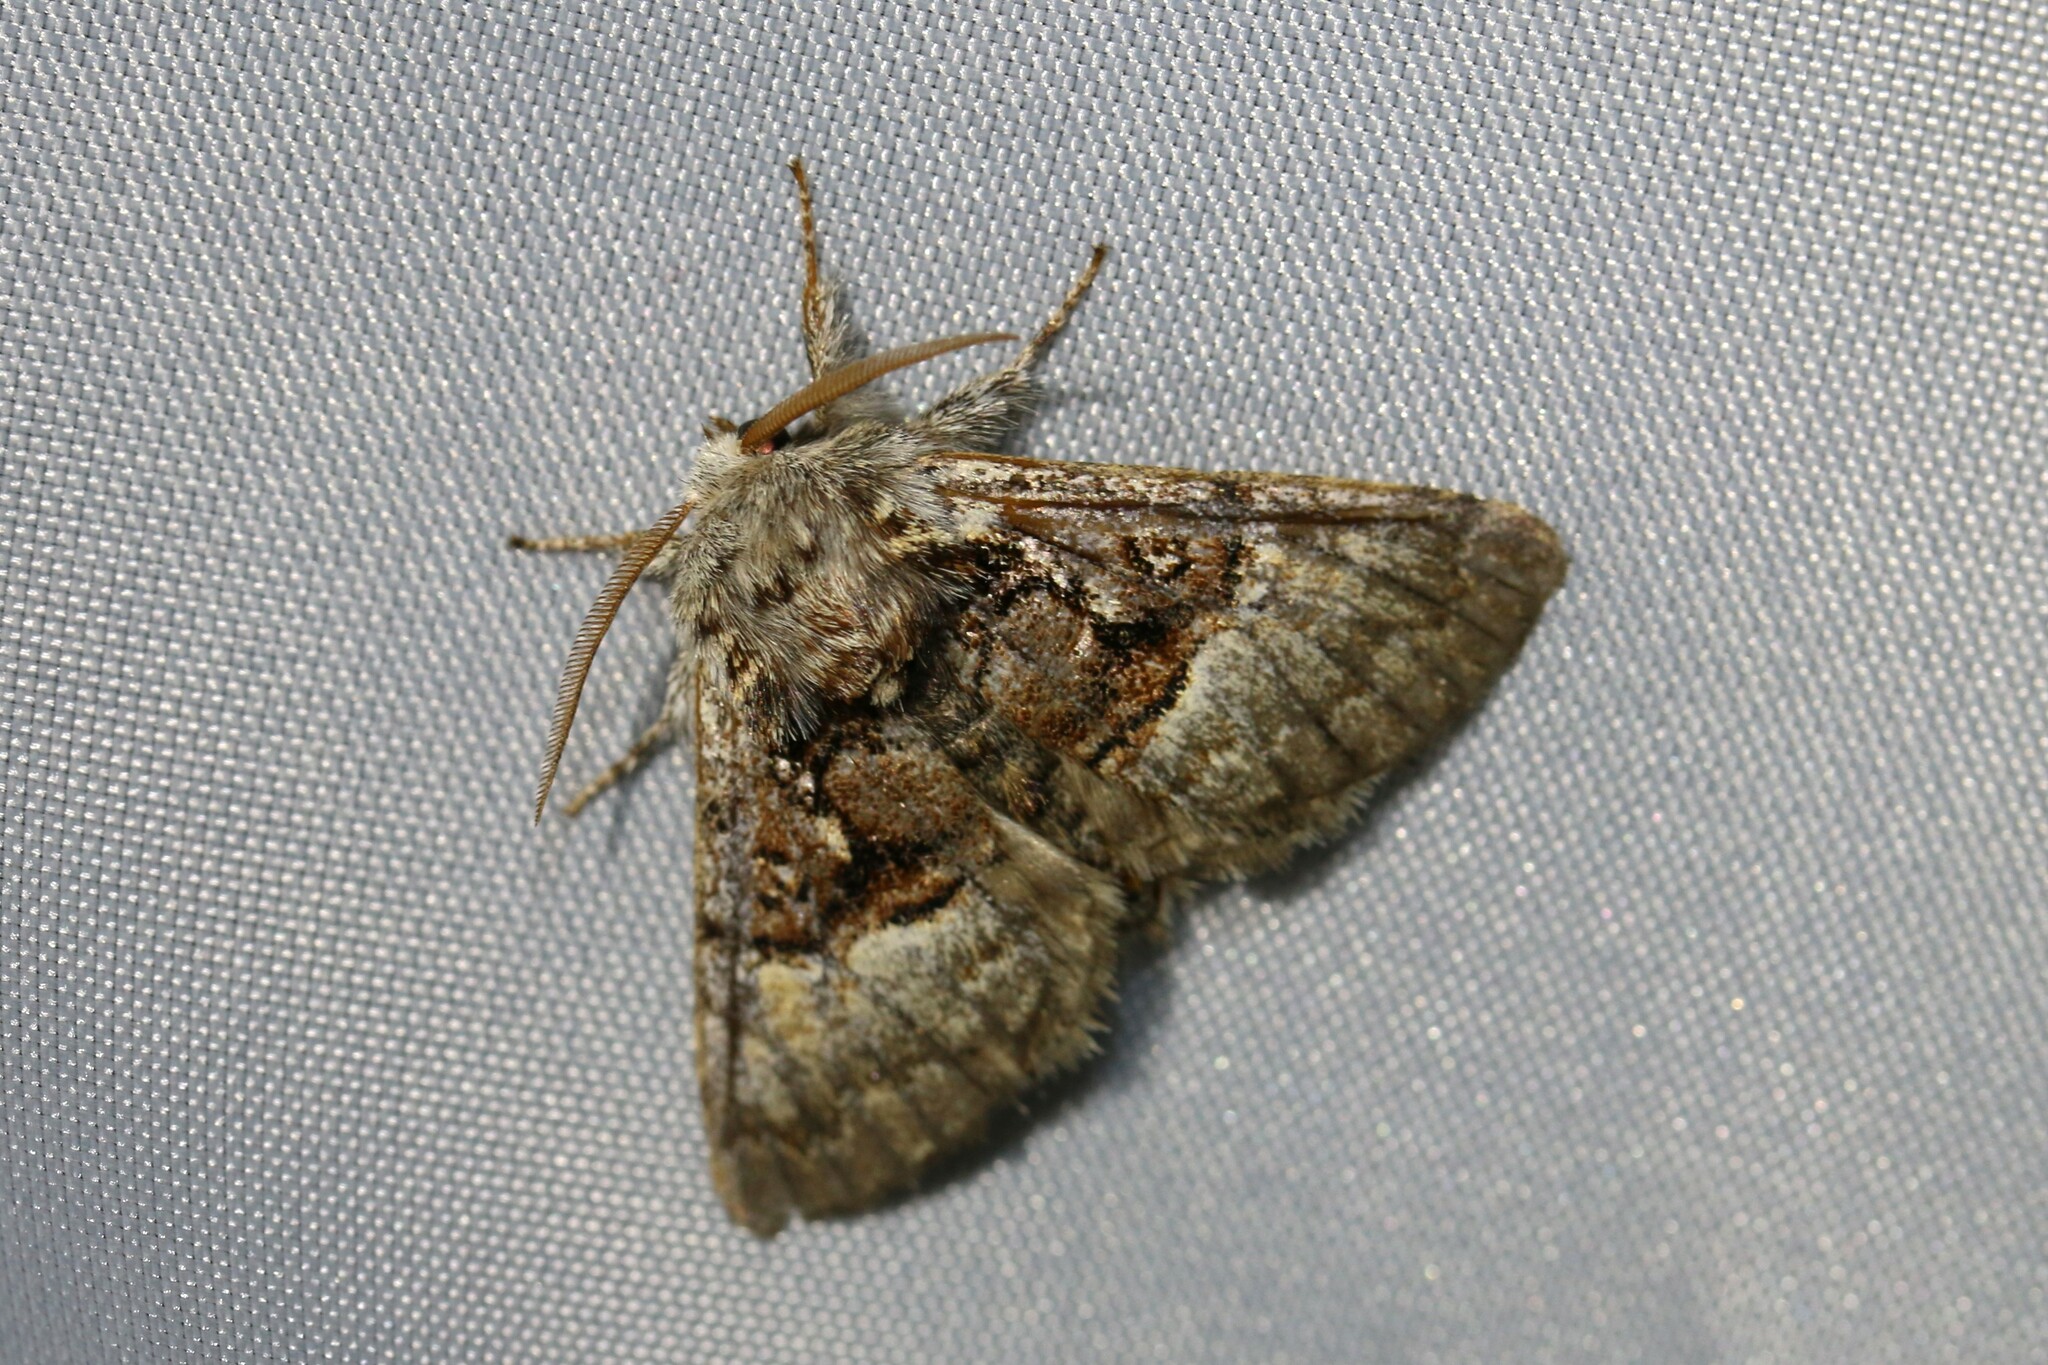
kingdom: Animalia
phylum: Arthropoda
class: Insecta
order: Lepidoptera
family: Noctuidae
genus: Colocasia
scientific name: Colocasia coryli
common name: Nut-tree tussock
